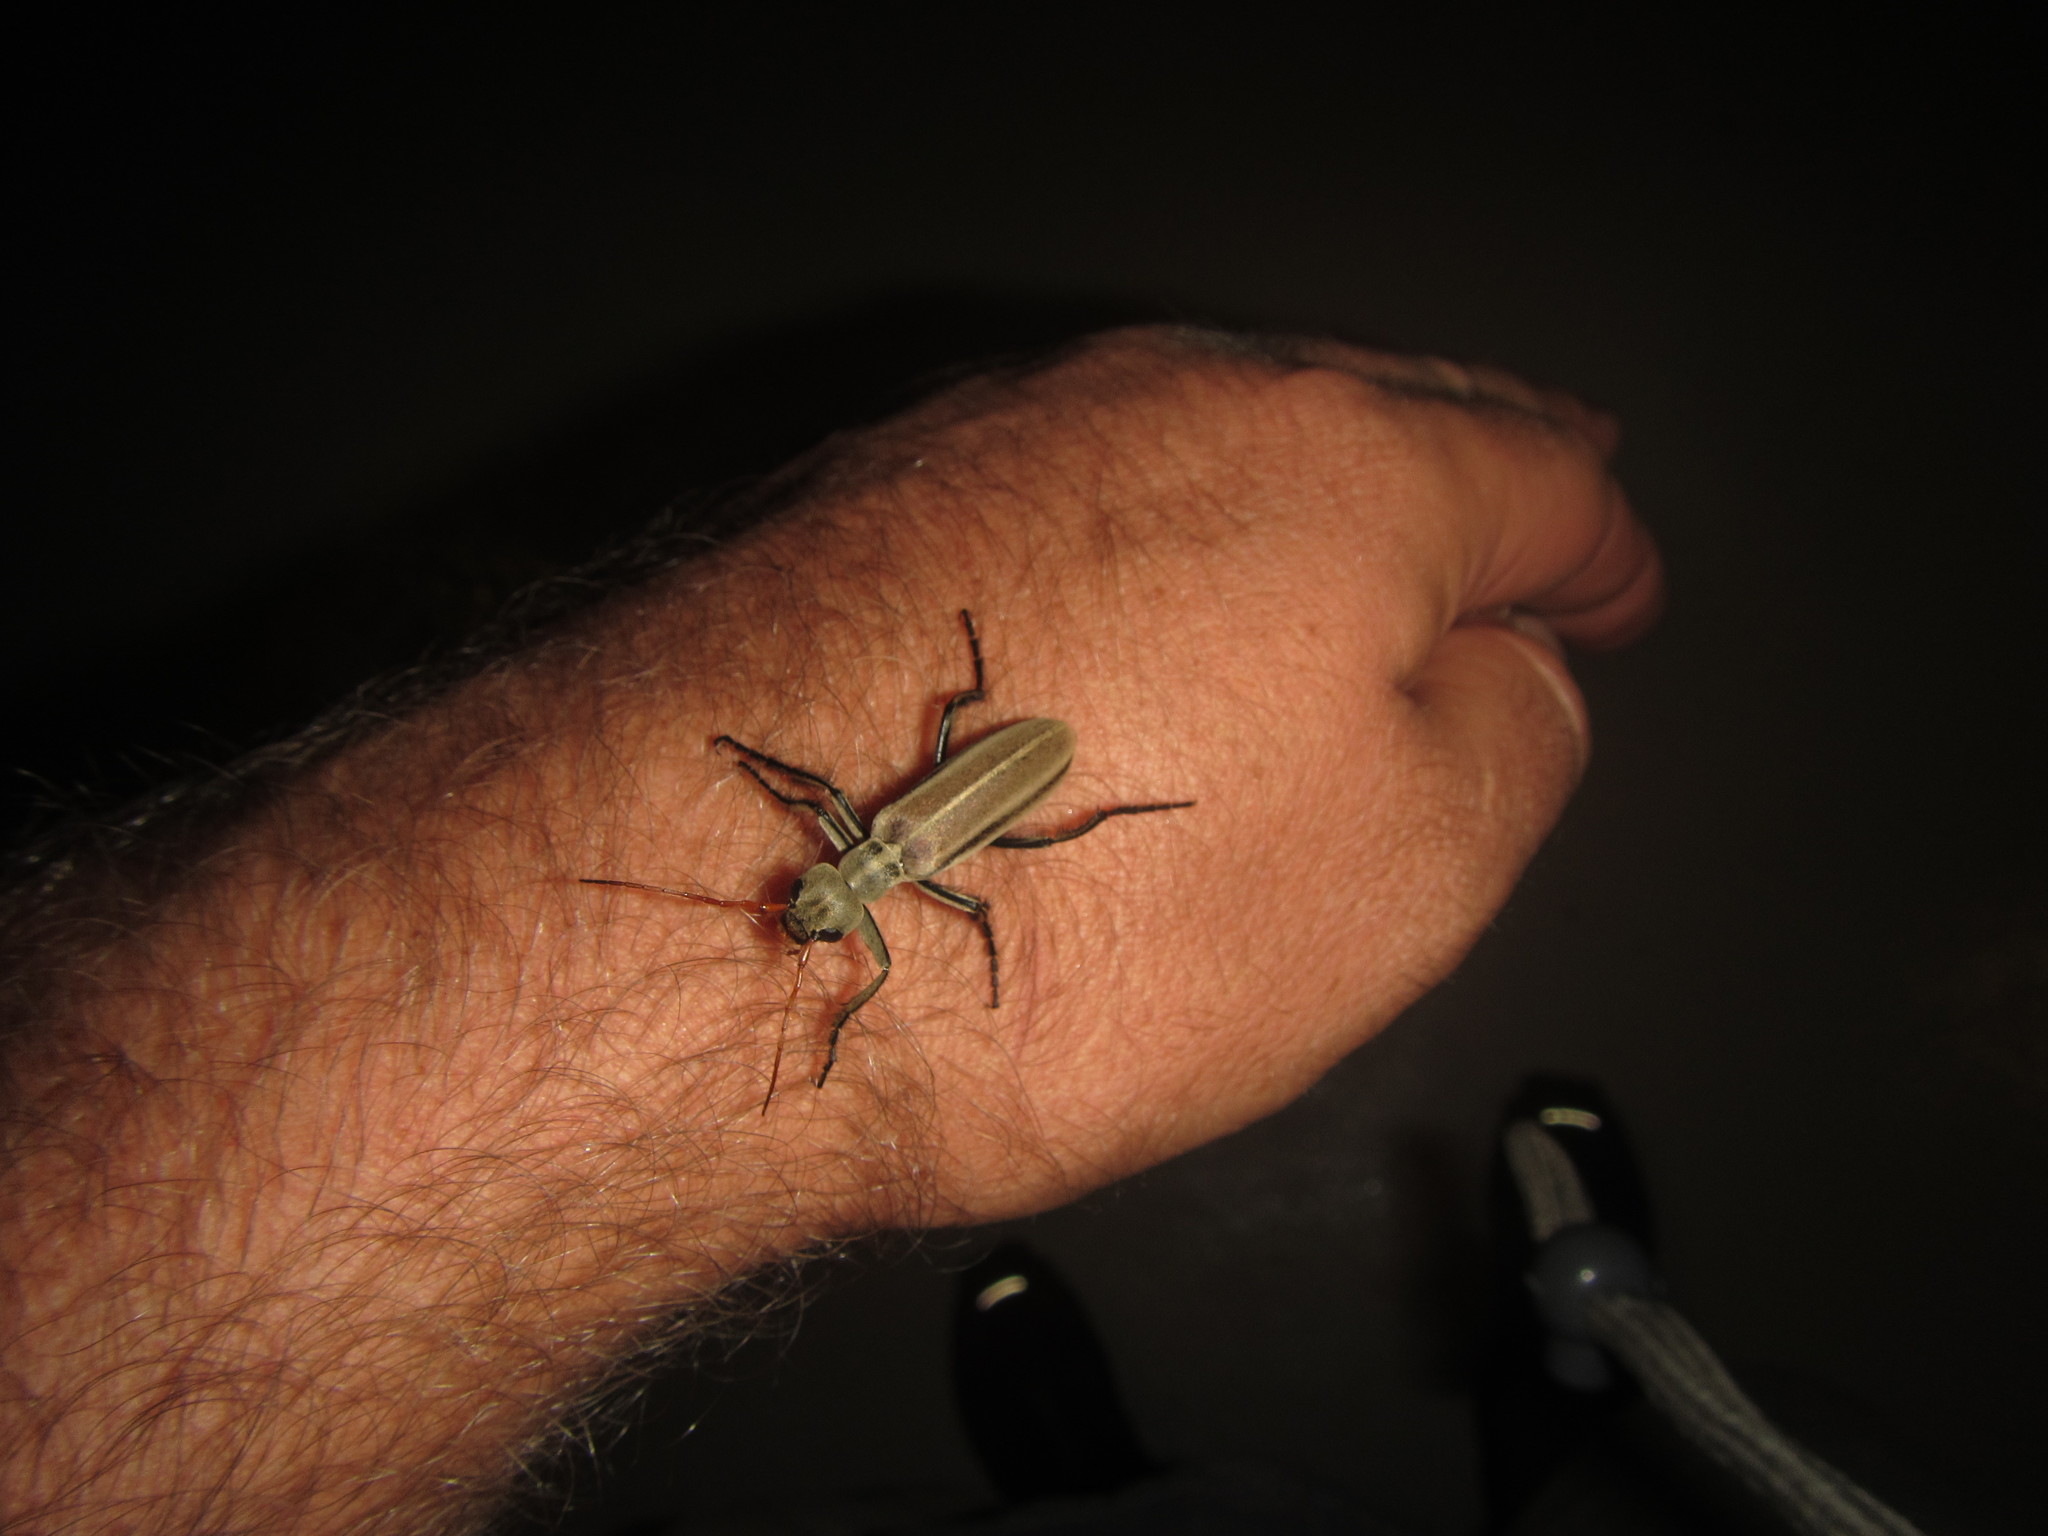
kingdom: Animalia
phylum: Arthropoda
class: Insecta
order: Coleoptera
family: Meloidae
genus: Psalydolytta
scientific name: Psalydolytta
